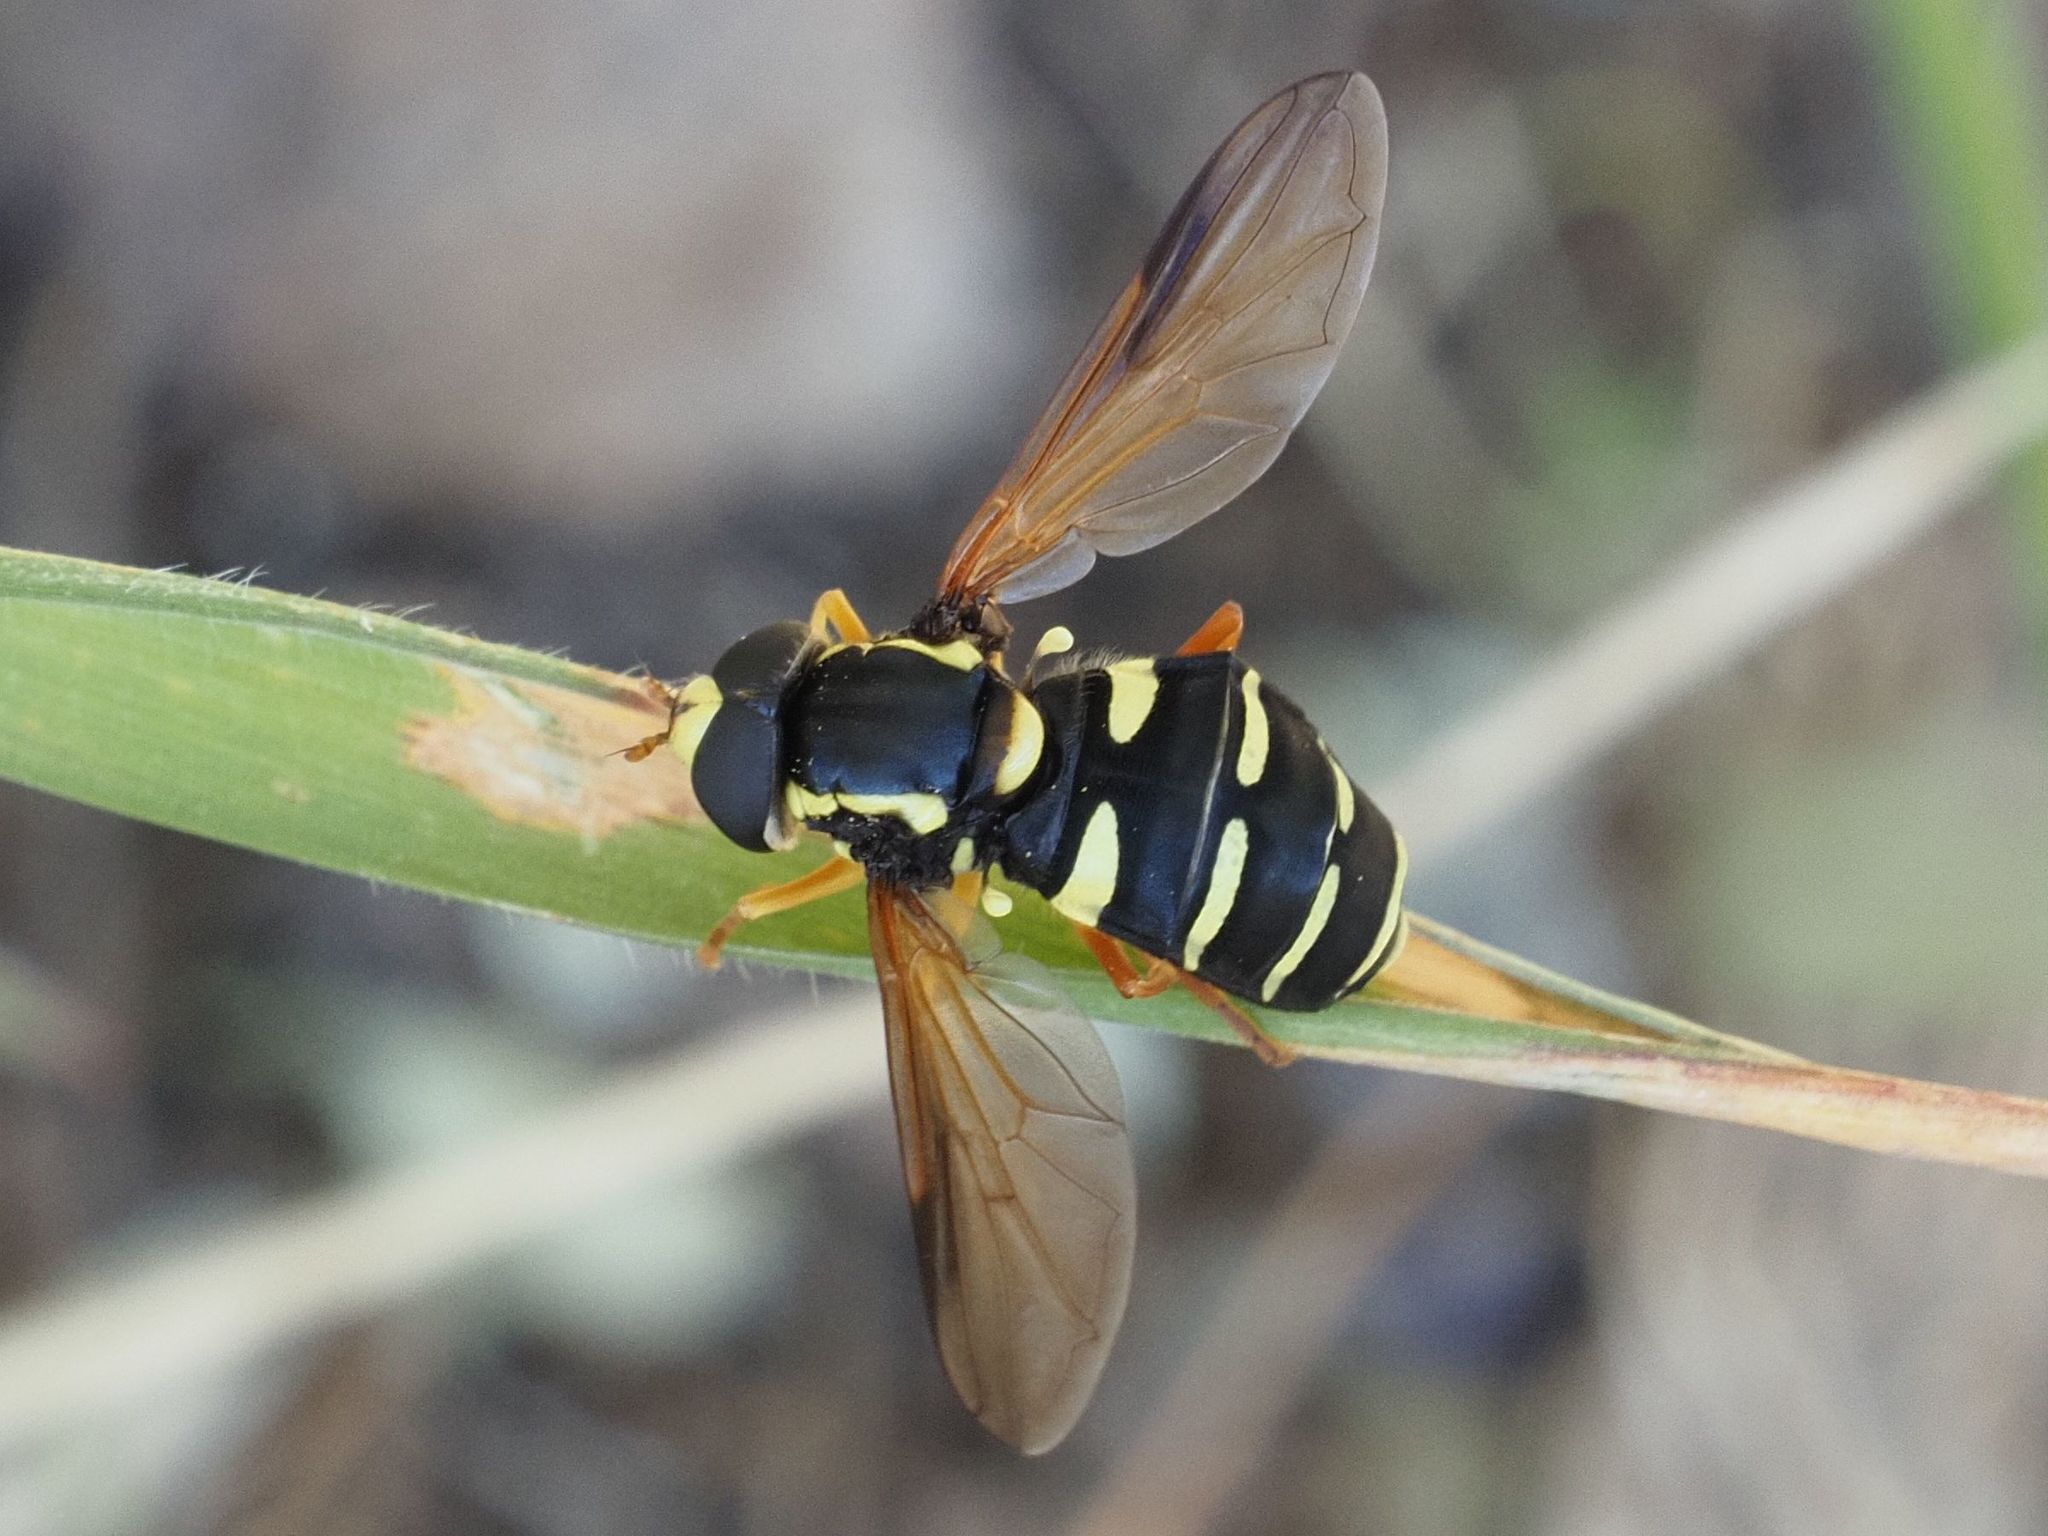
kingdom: Animalia
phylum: Arthropoda
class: Insecta
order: Diptera
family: Syrphidae
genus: Philhelius
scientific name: Philhelius citrofasciata
